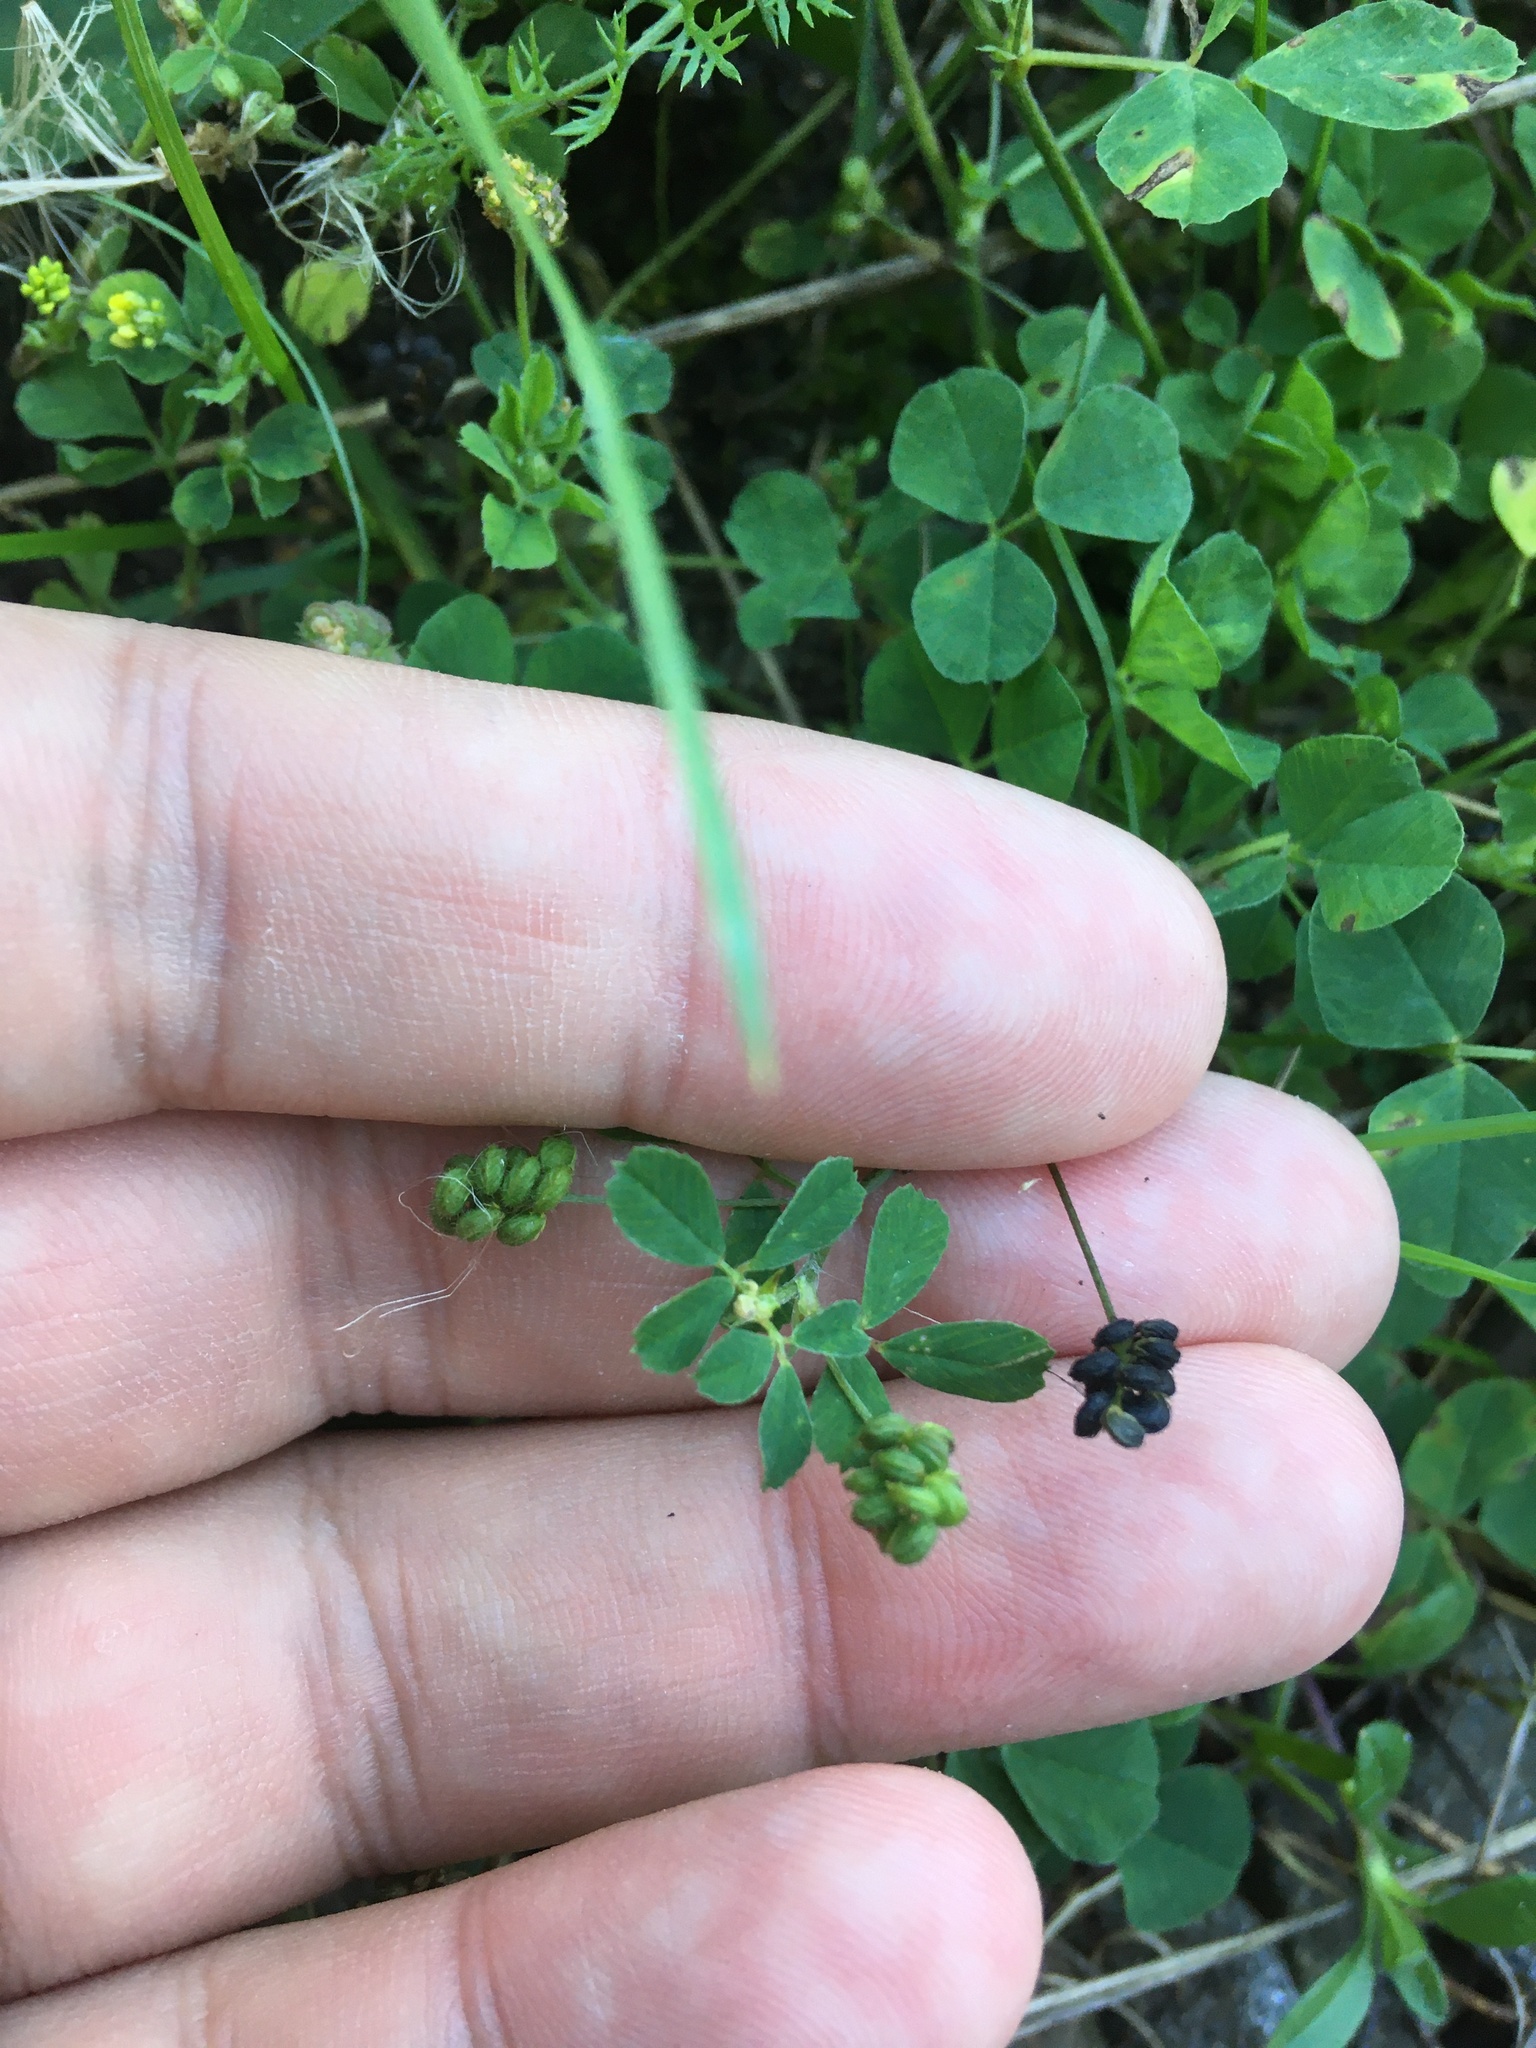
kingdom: Plantae
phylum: Tracheophyta
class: Magnoliopsida
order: Fabales
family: Fabaceae
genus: Medicago
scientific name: Medicago lupulina
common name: Black medick
